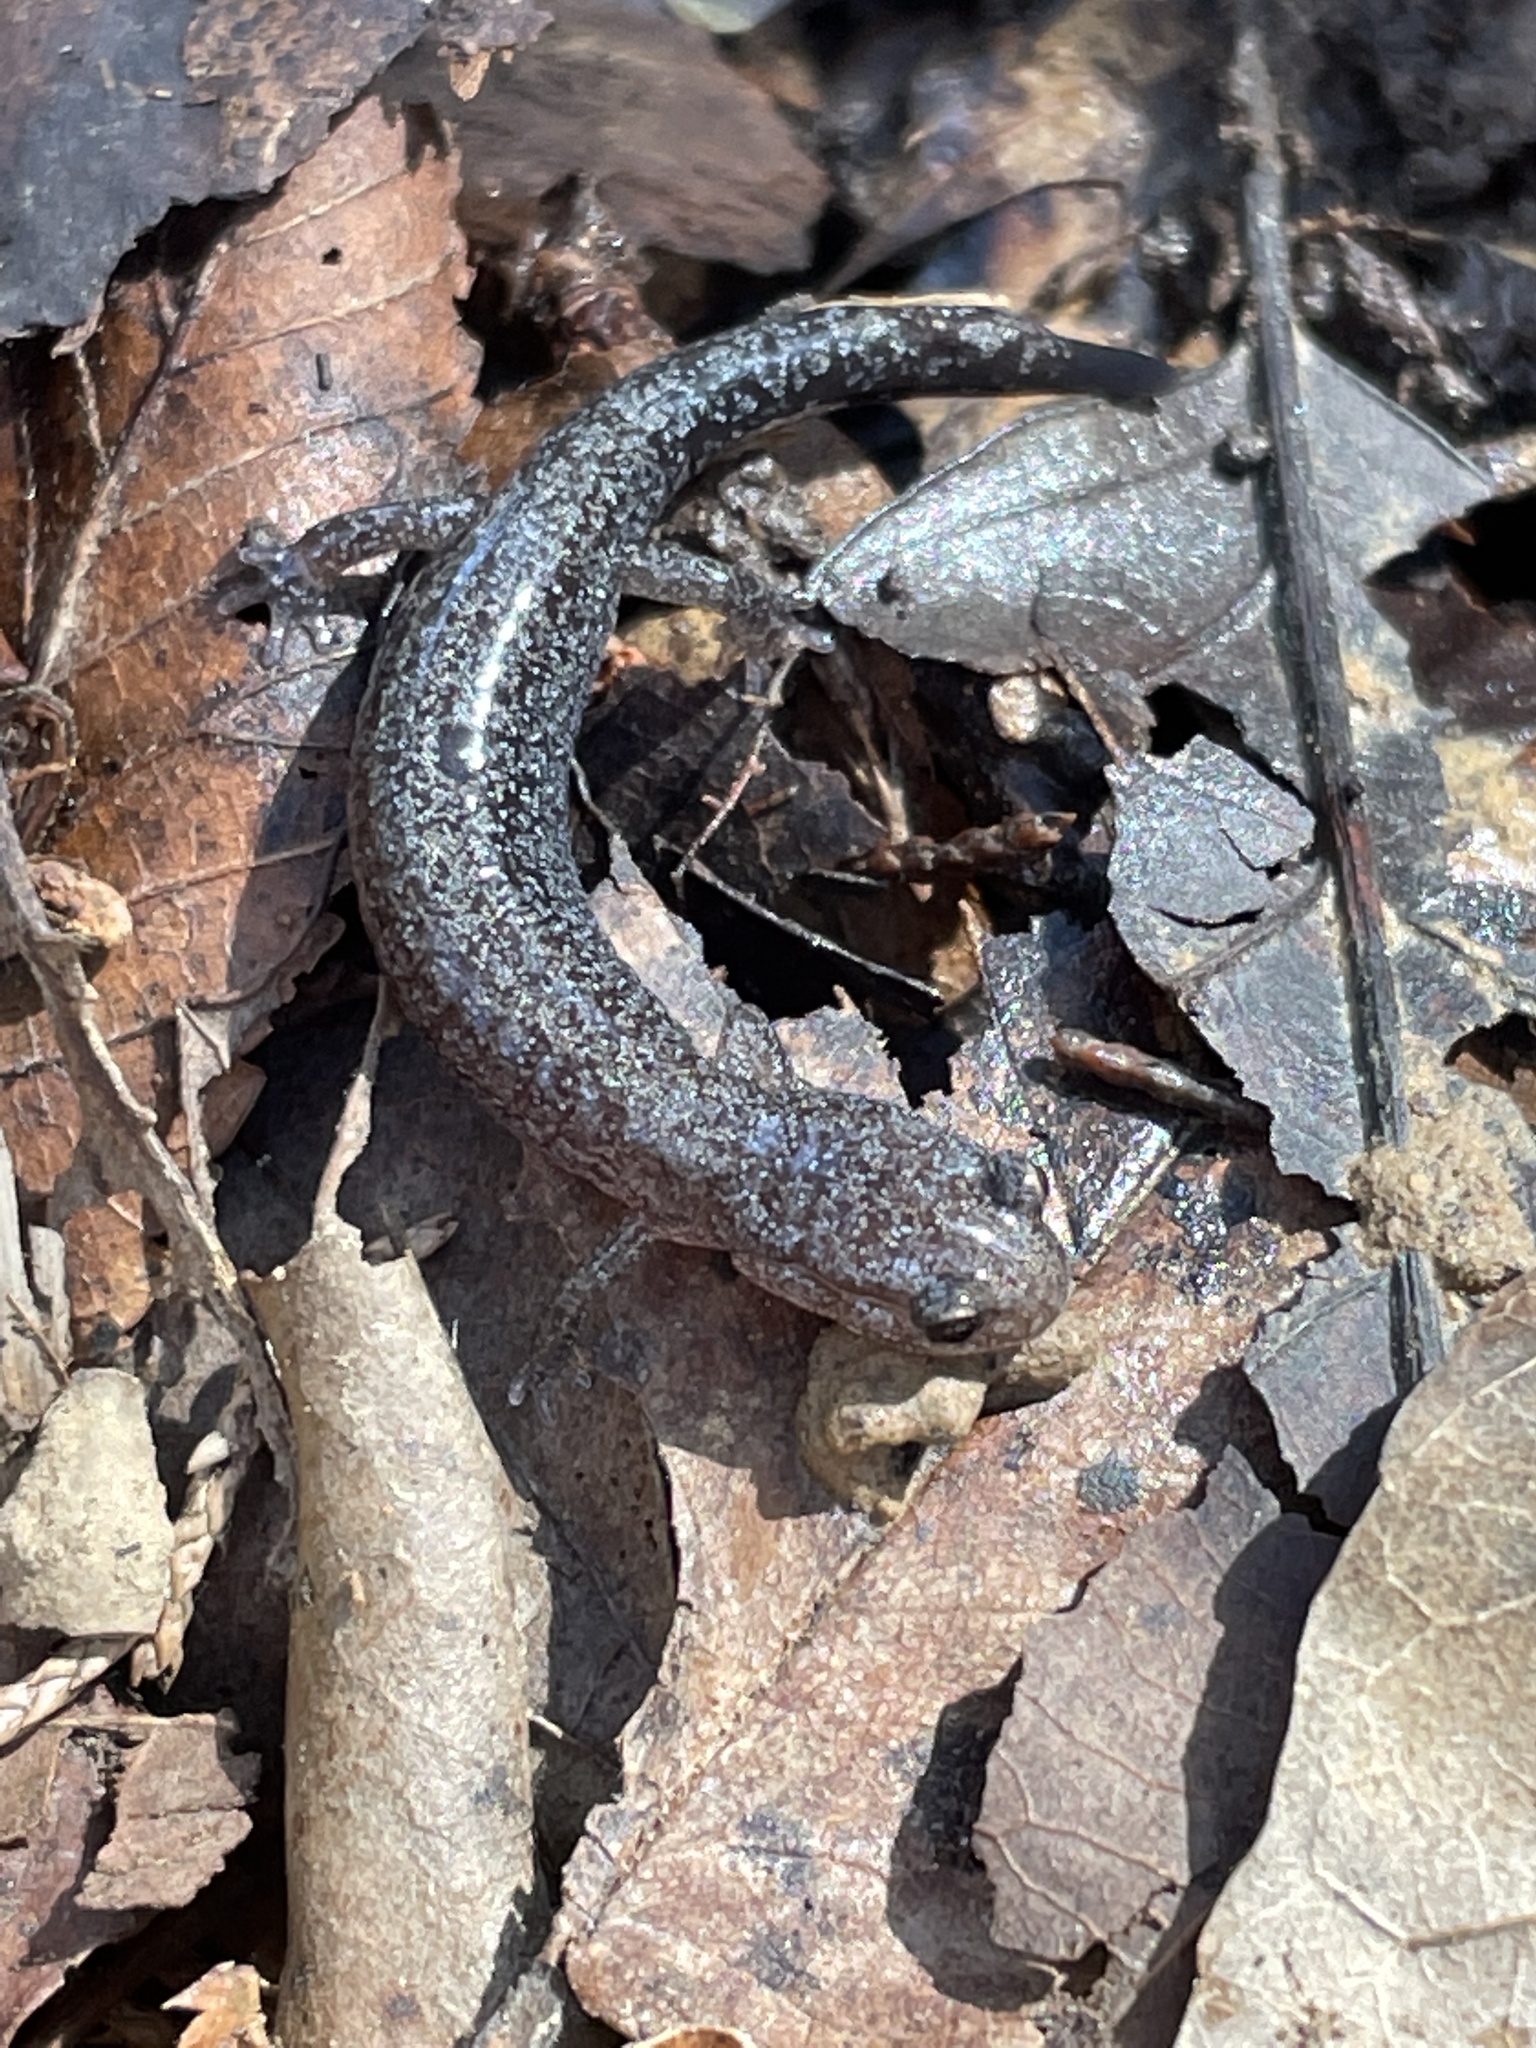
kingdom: Animalia
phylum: Chordata
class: Amphibia
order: Caudata
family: Plethodontidae
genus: Plethodon
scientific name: Plethodon dorsalis
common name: Northern zigzag salamander
